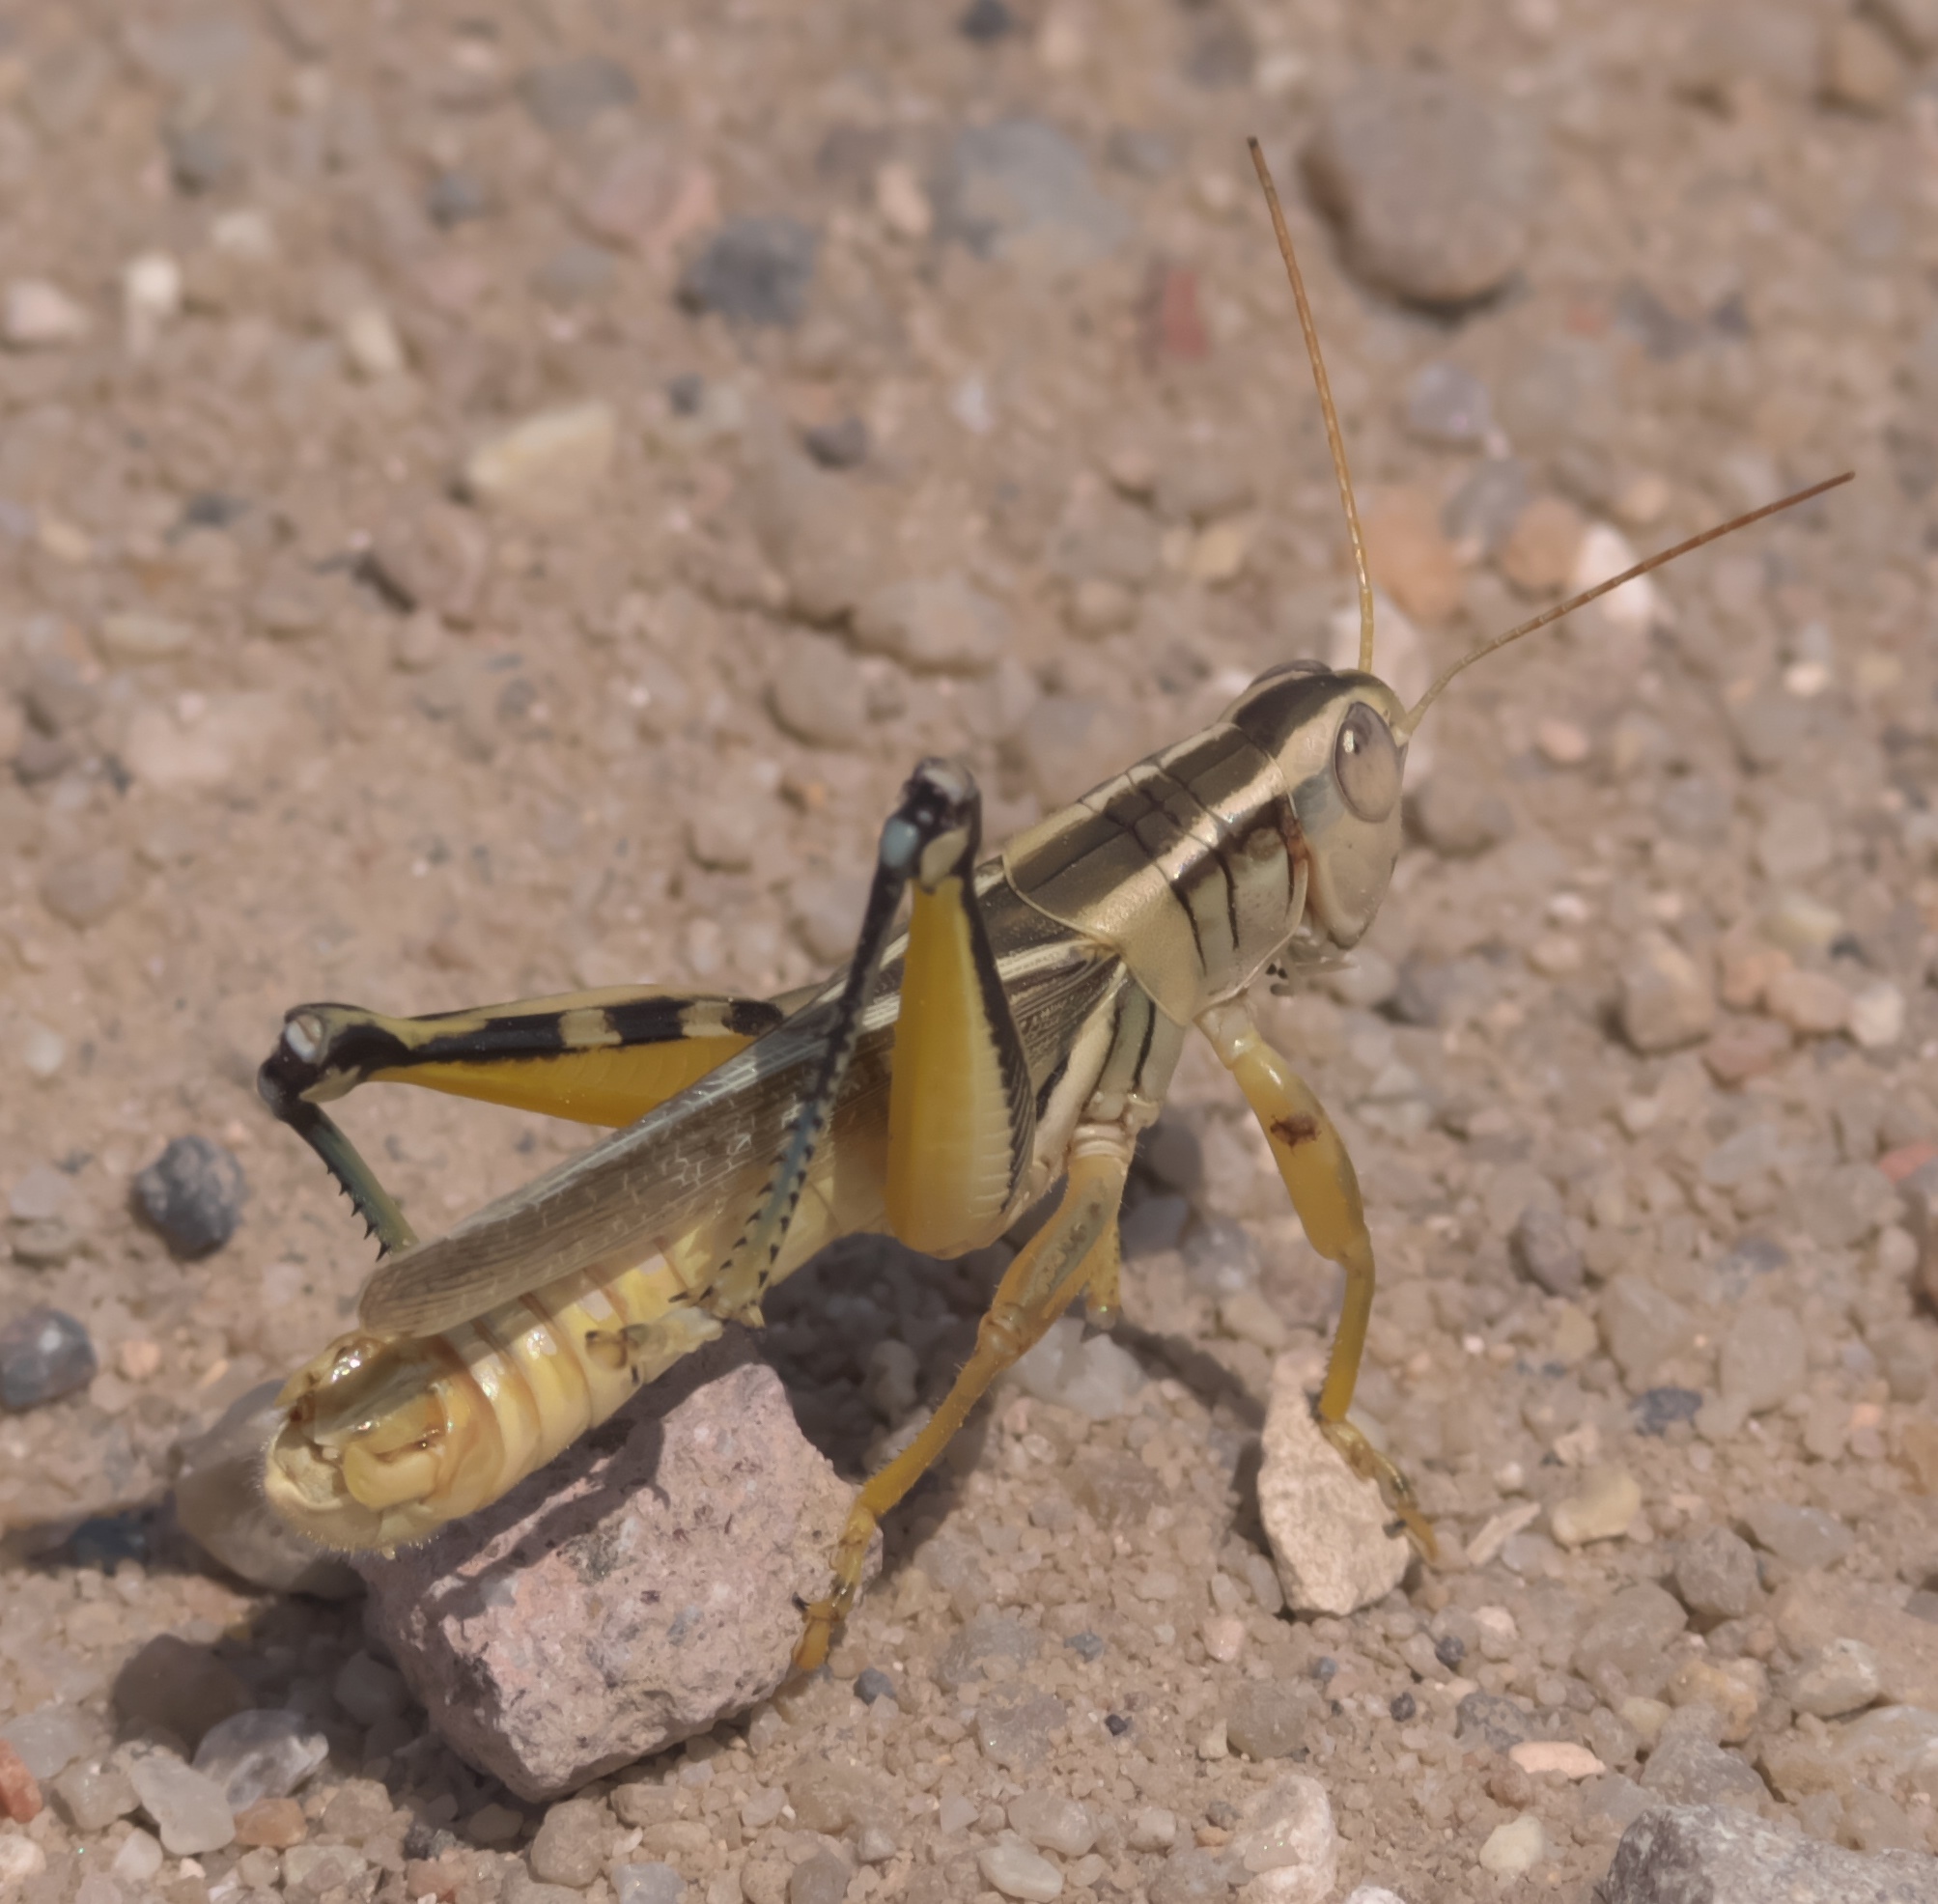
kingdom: Animalia
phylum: Arthropoda
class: Insecta
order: Orthoptera
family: Acrididae
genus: Melanoplus
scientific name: Melanoplus bivittatus
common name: Two-striped grasshopper
